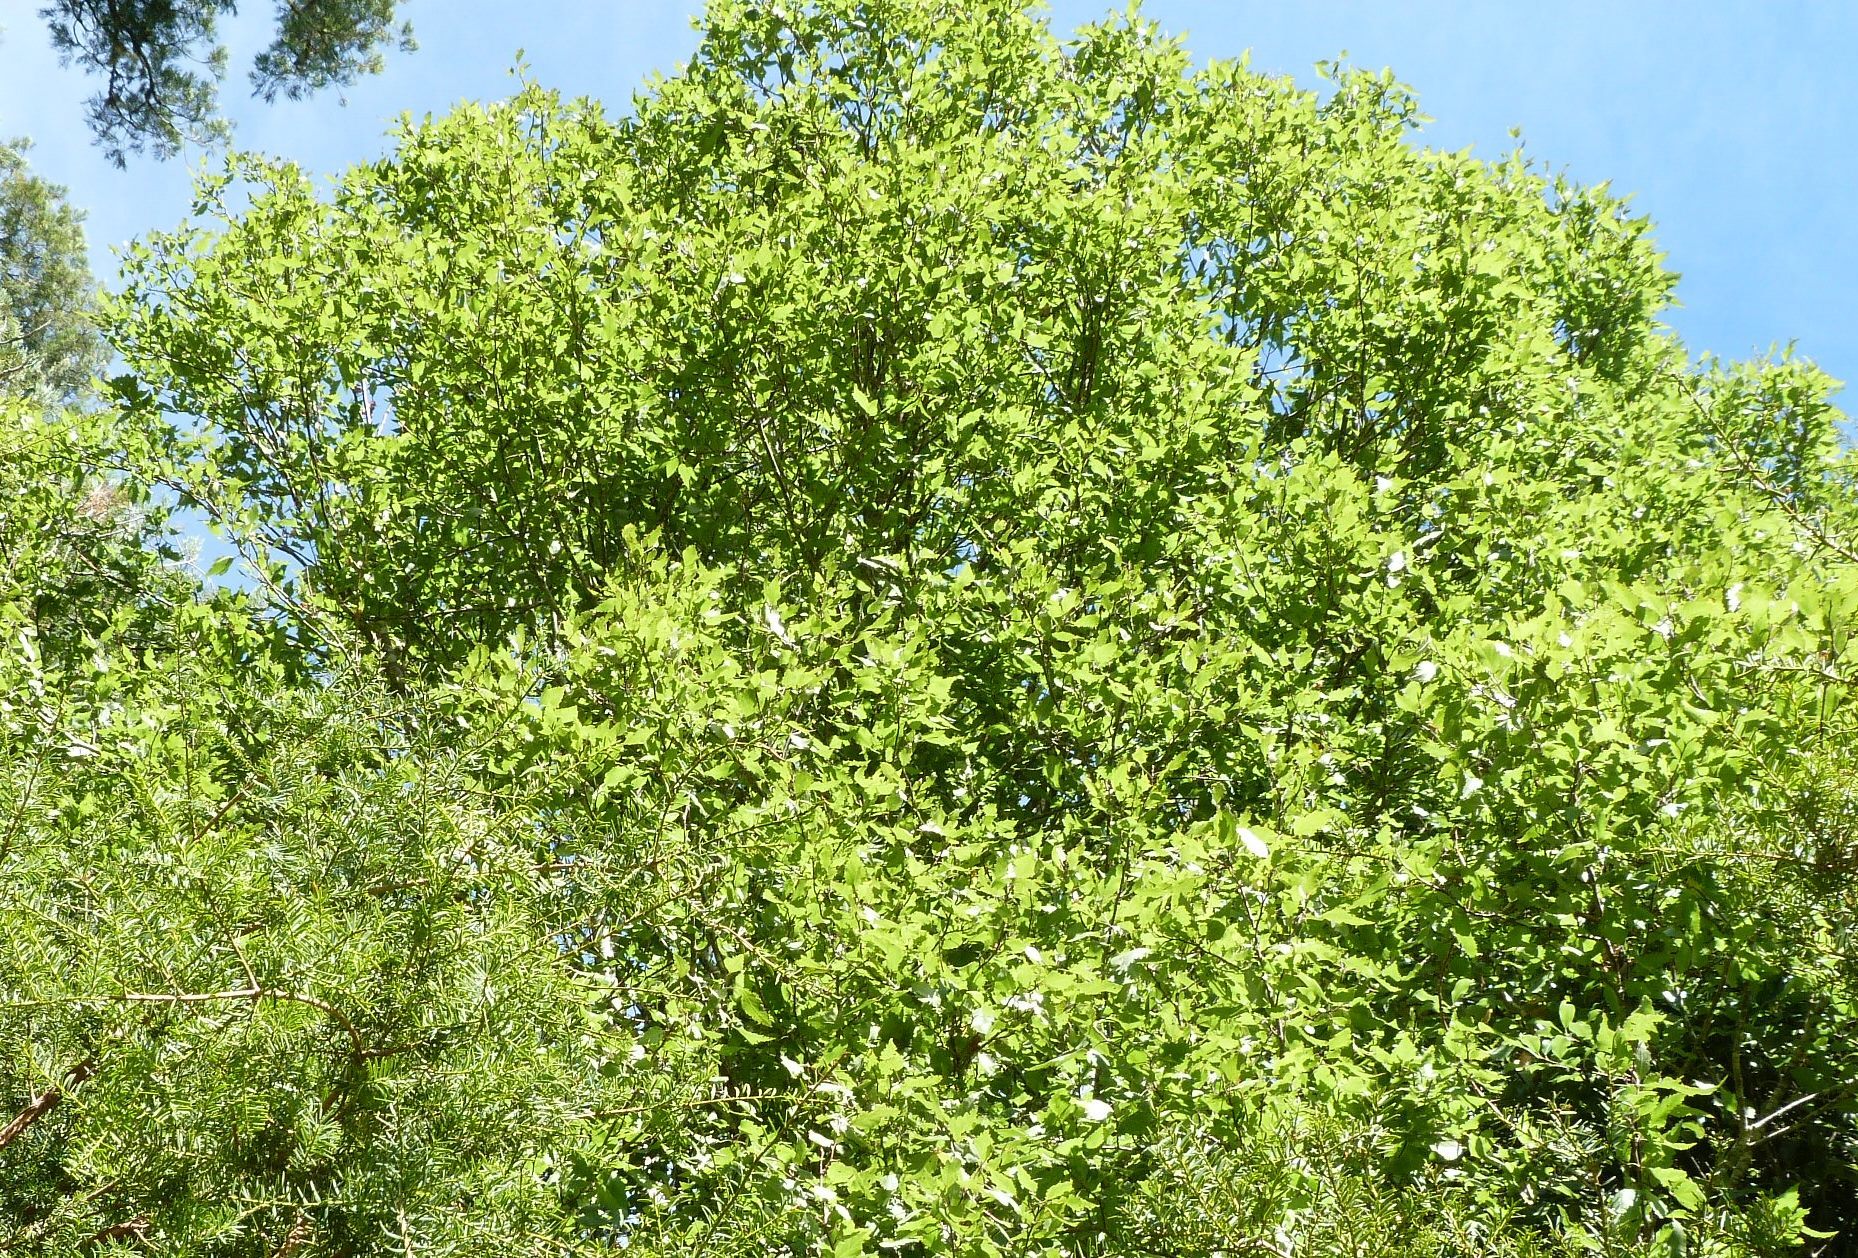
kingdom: Plantae
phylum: Tracheophyta
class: Magnoliopsida
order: Malvales
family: Malvaceae
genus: Plagianthus
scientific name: Plagianthus regius
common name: Manatu
